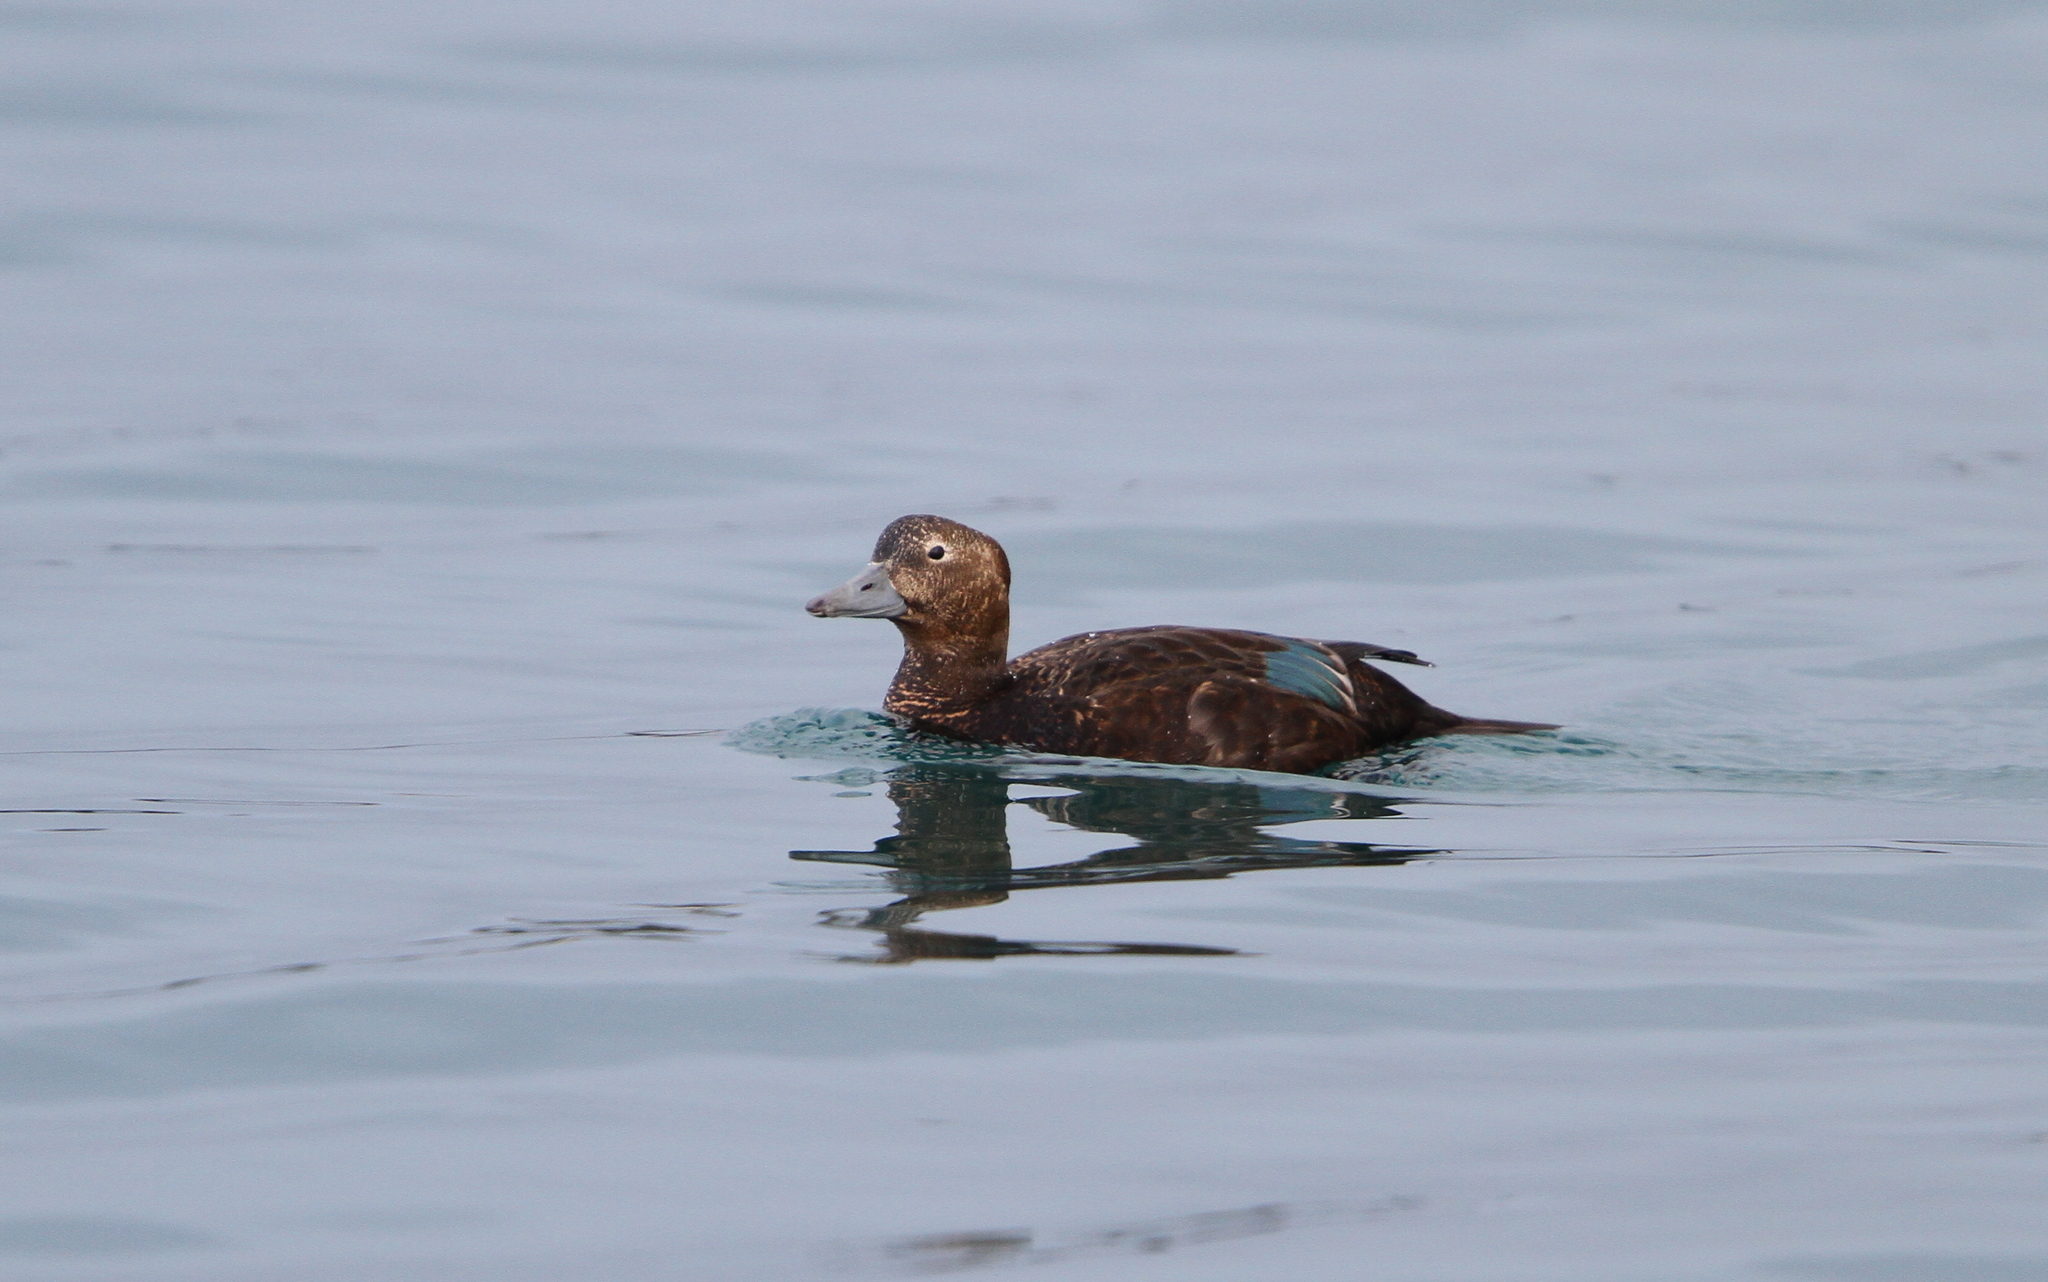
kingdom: Animalia
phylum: Chordata
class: Aves
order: Anseriformes
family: Anatidae
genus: Polysticta
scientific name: Polysticta stelleri
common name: Steller's eider
